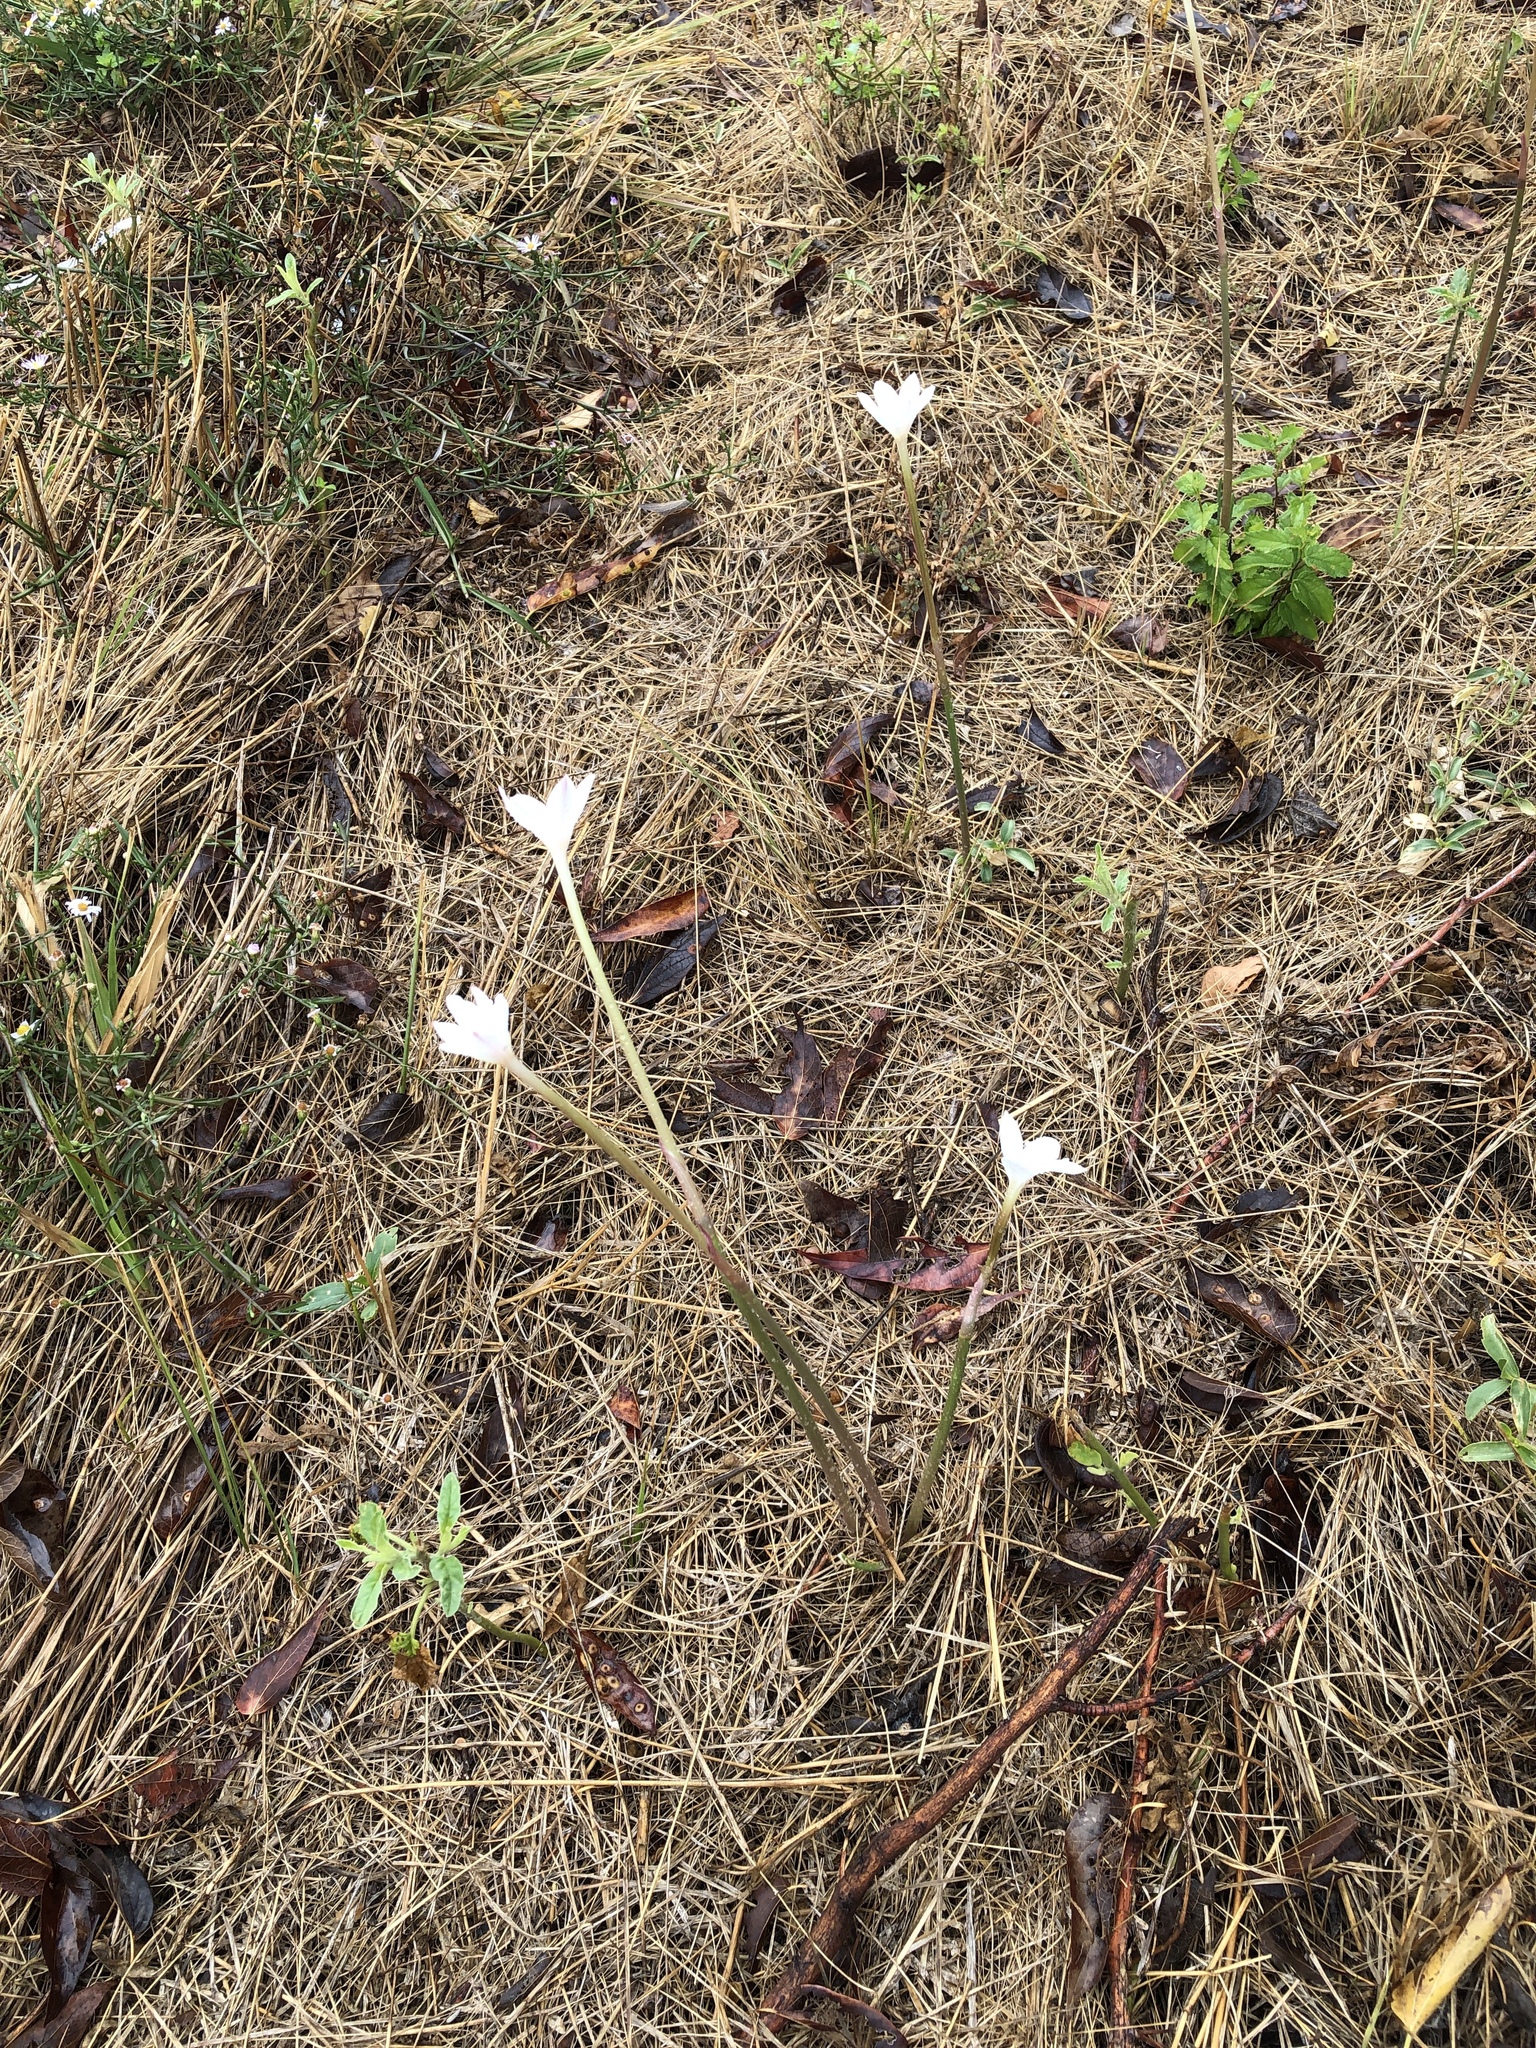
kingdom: Plantae
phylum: Tracheophyta
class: Liliopsida
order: Asparagales
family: Amaryllidaceae
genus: Zephyranthes
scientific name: Zephyranthes chlorosolen
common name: Evening rain-lily
